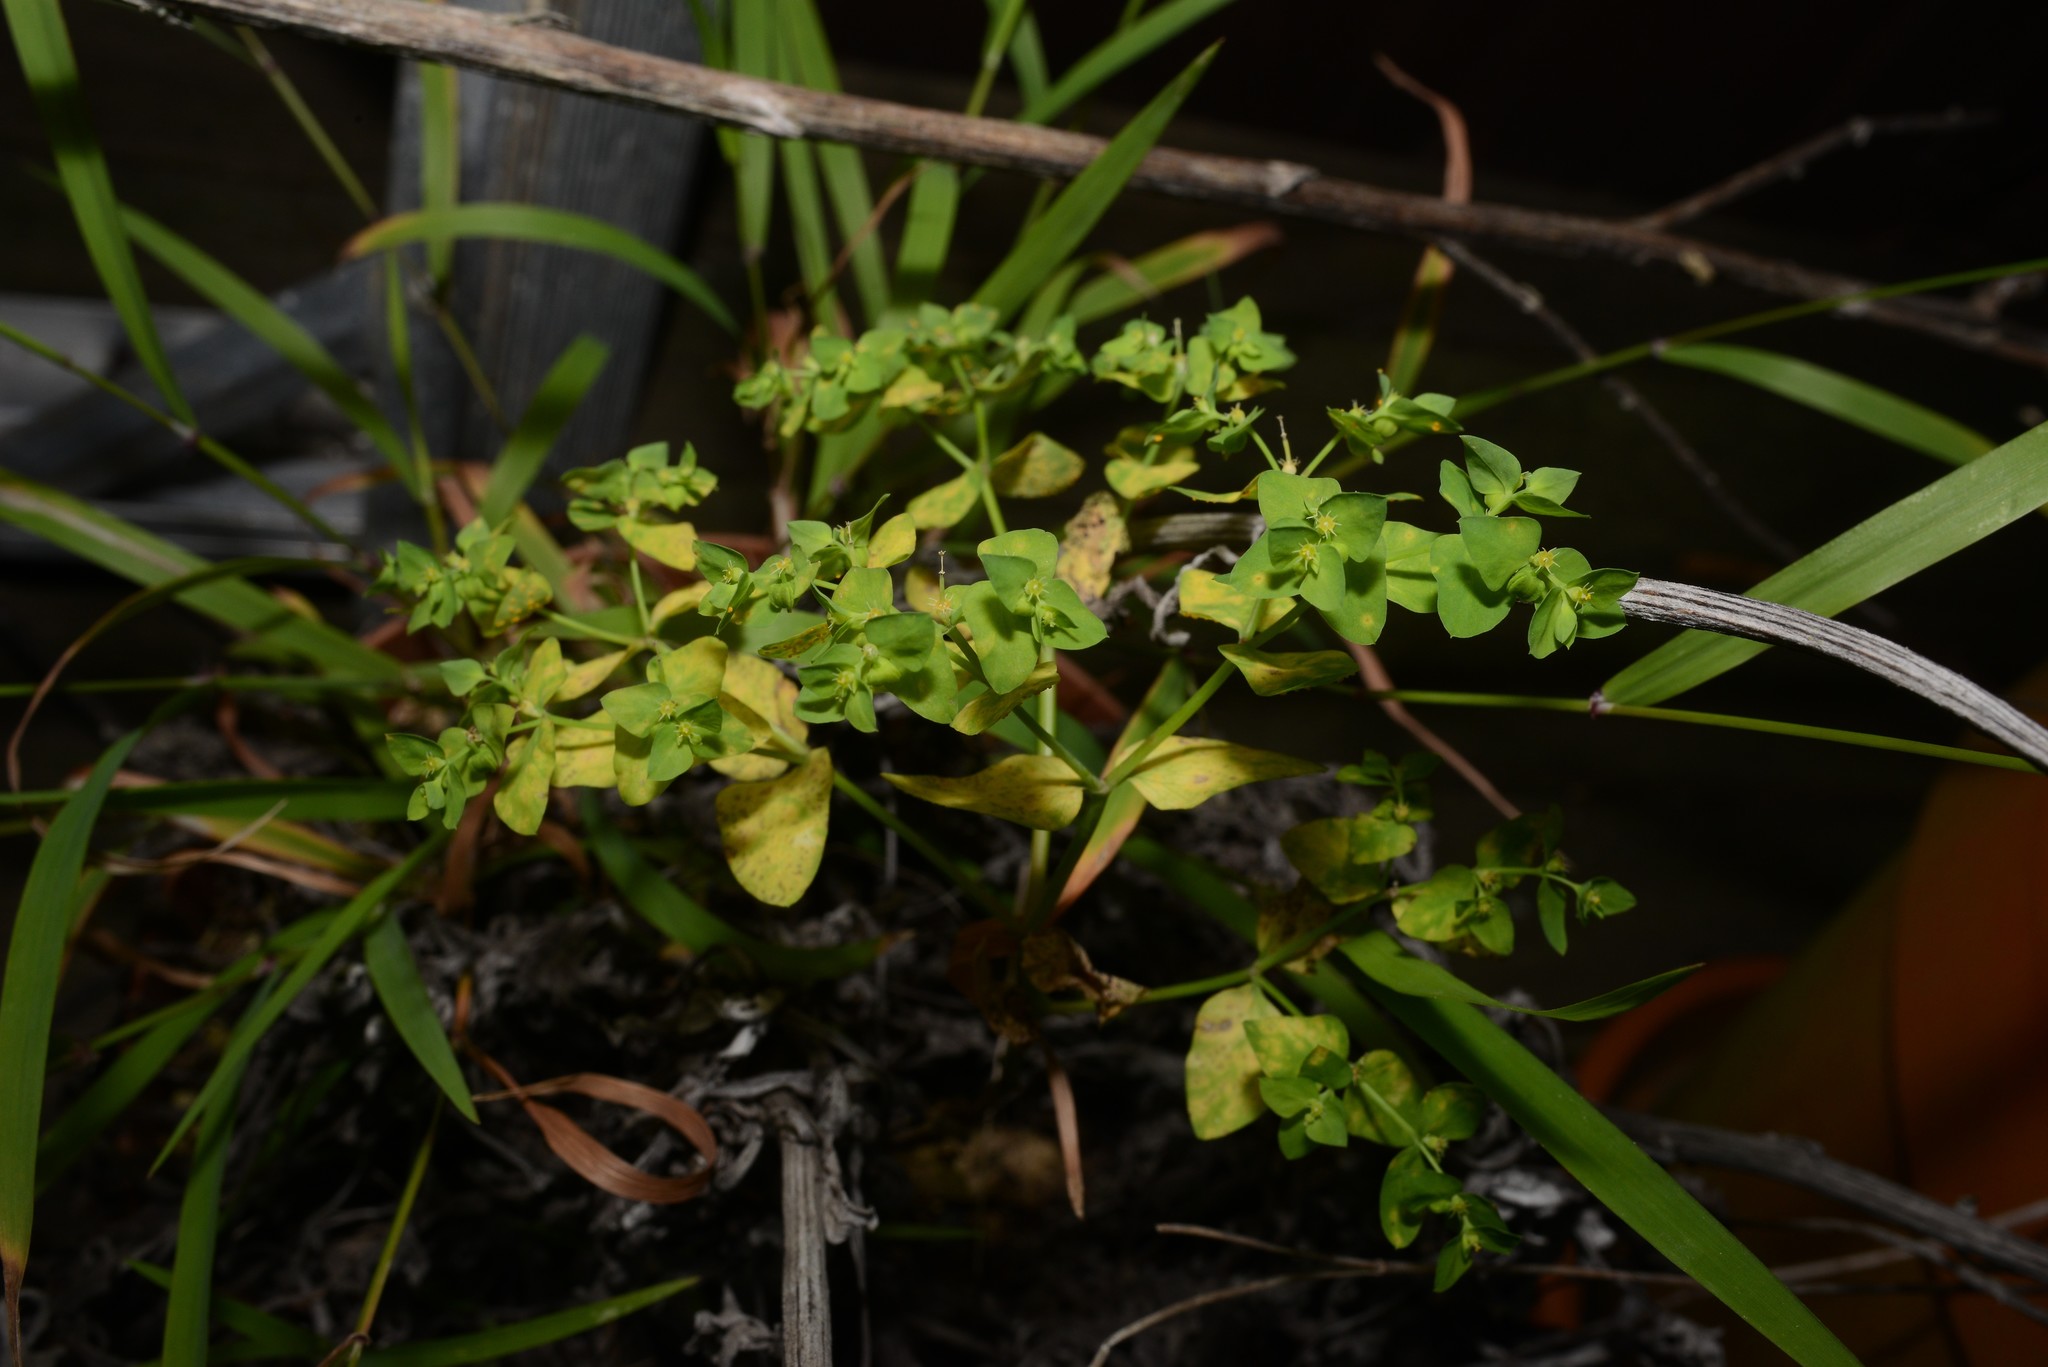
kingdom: Plantae
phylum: Tracheophyta
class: Magnoliopsida
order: Malpighiales
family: Euphorbiaceae
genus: Euphorbia
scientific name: Euphorbia peplus
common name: Petty spurge
